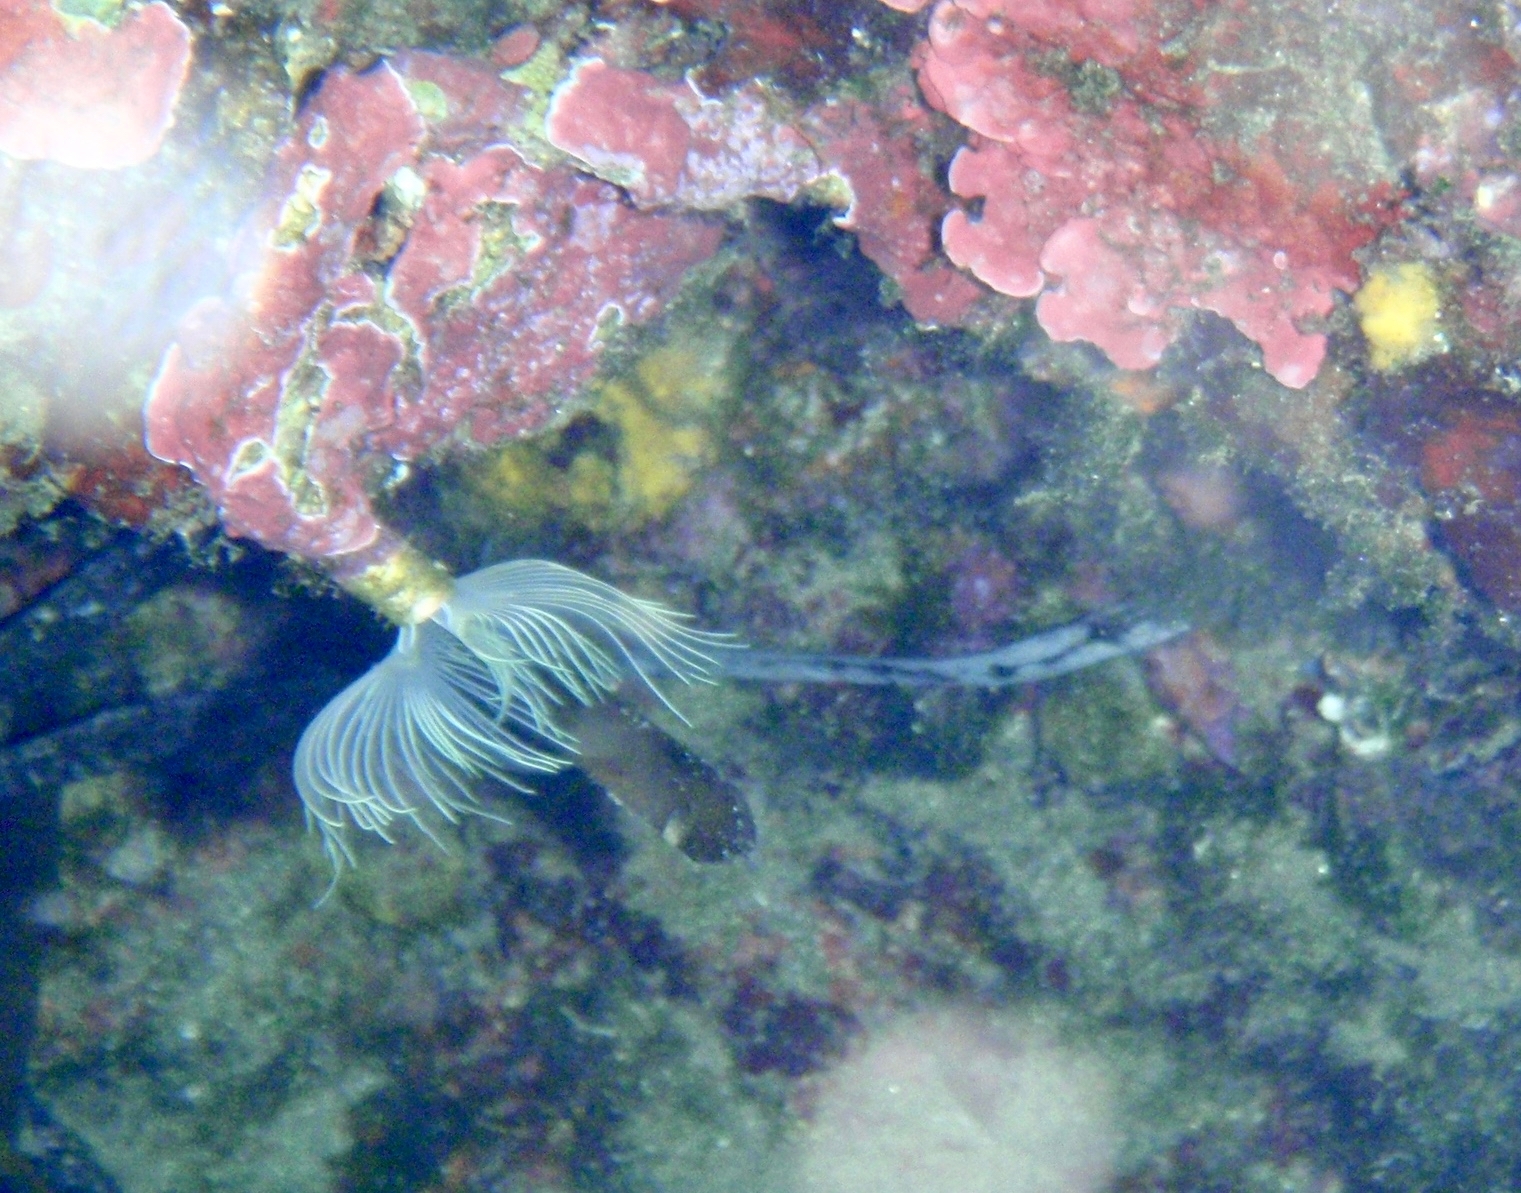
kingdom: Animalia
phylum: Annelida
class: Polychaeta
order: Sabellida
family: Serpulidae
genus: Protula
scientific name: Protula tubularia
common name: Red-spotted horseshoe
